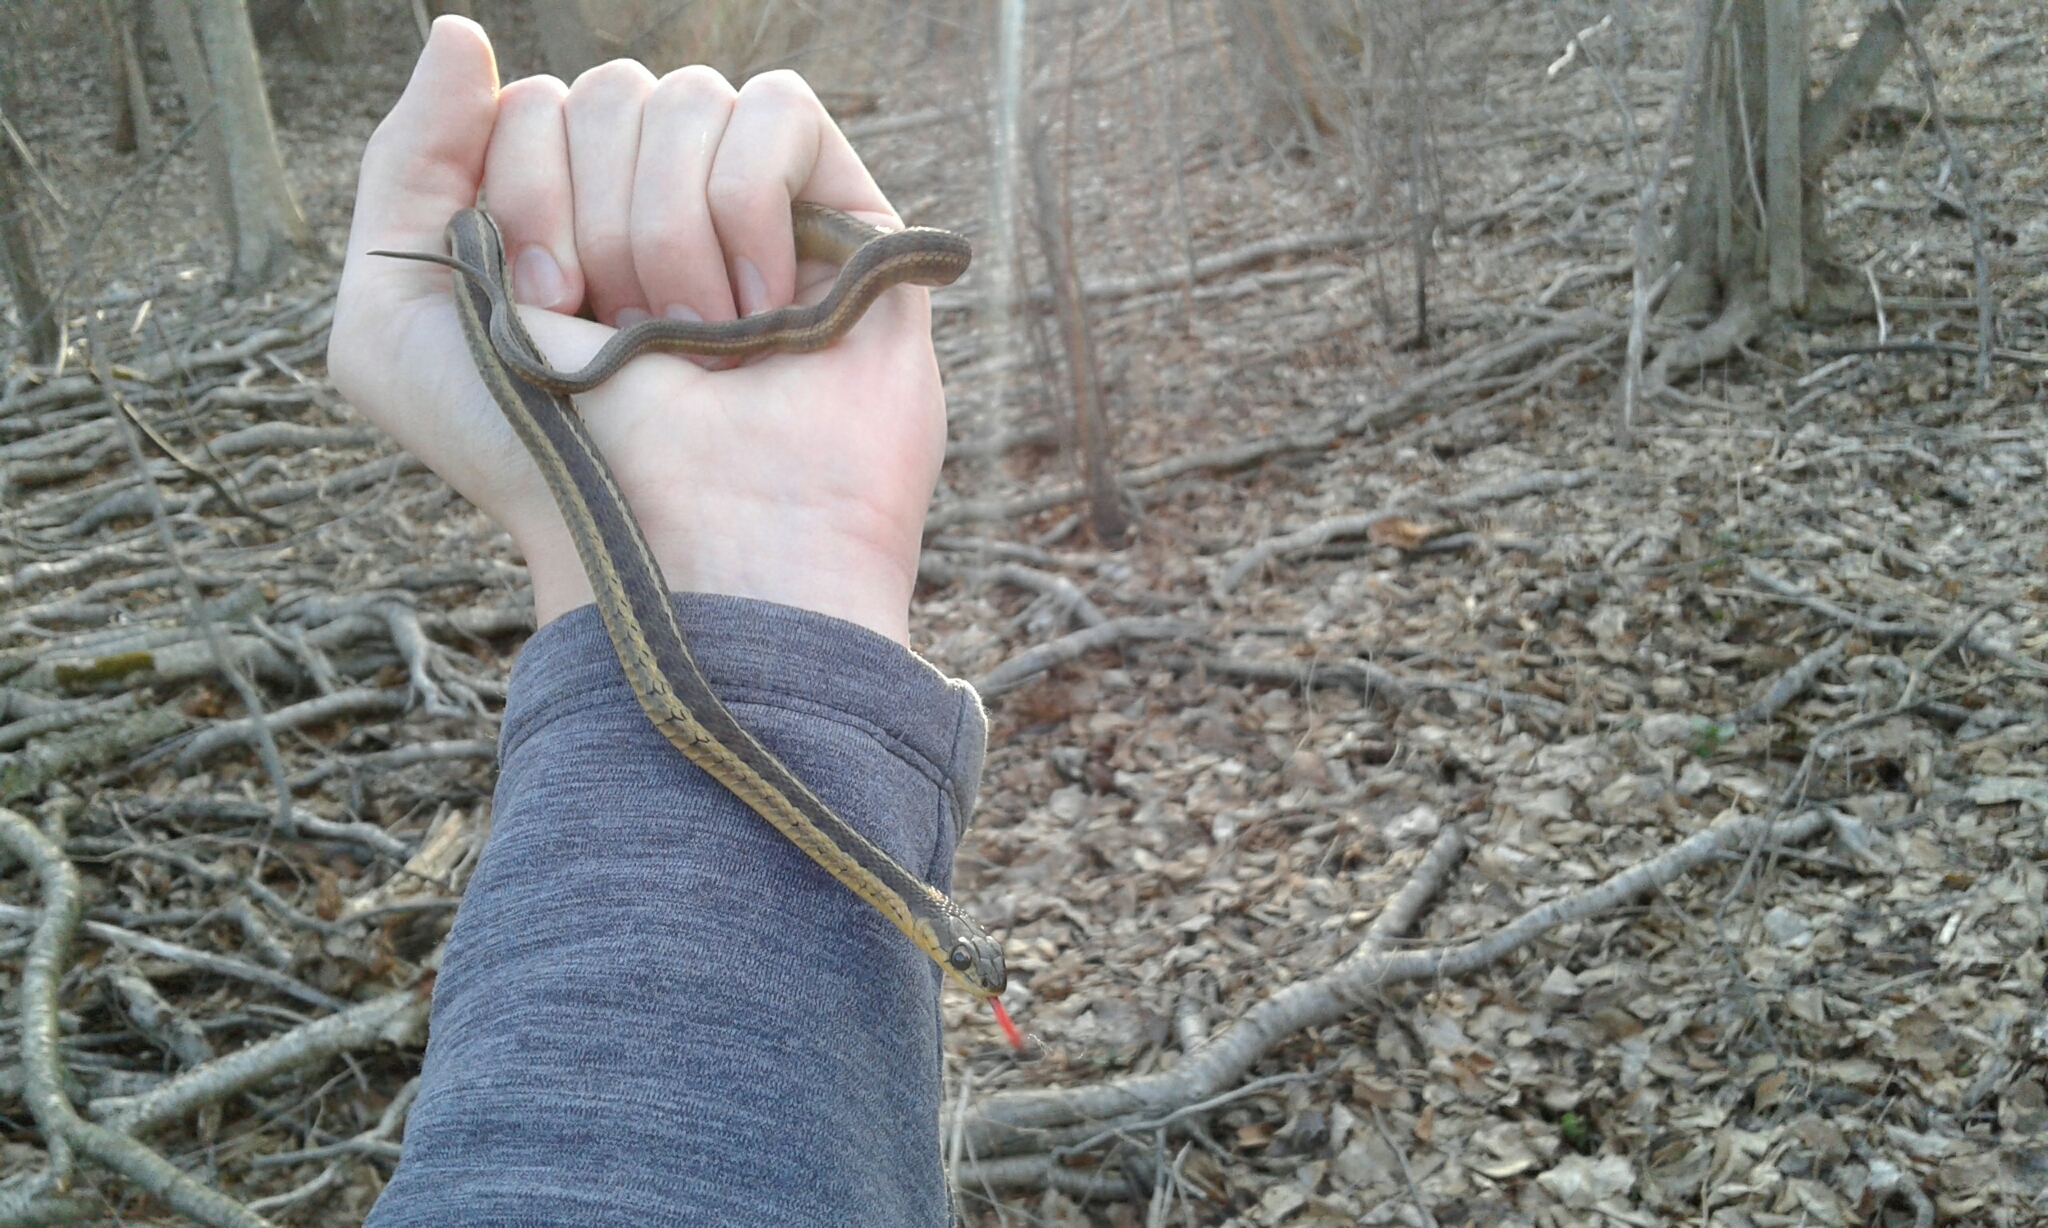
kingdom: Animalia
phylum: Chordata
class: Squamata
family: Colubridae
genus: Thamnophis
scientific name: Thamnophis sirtalis
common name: Common garter snake
